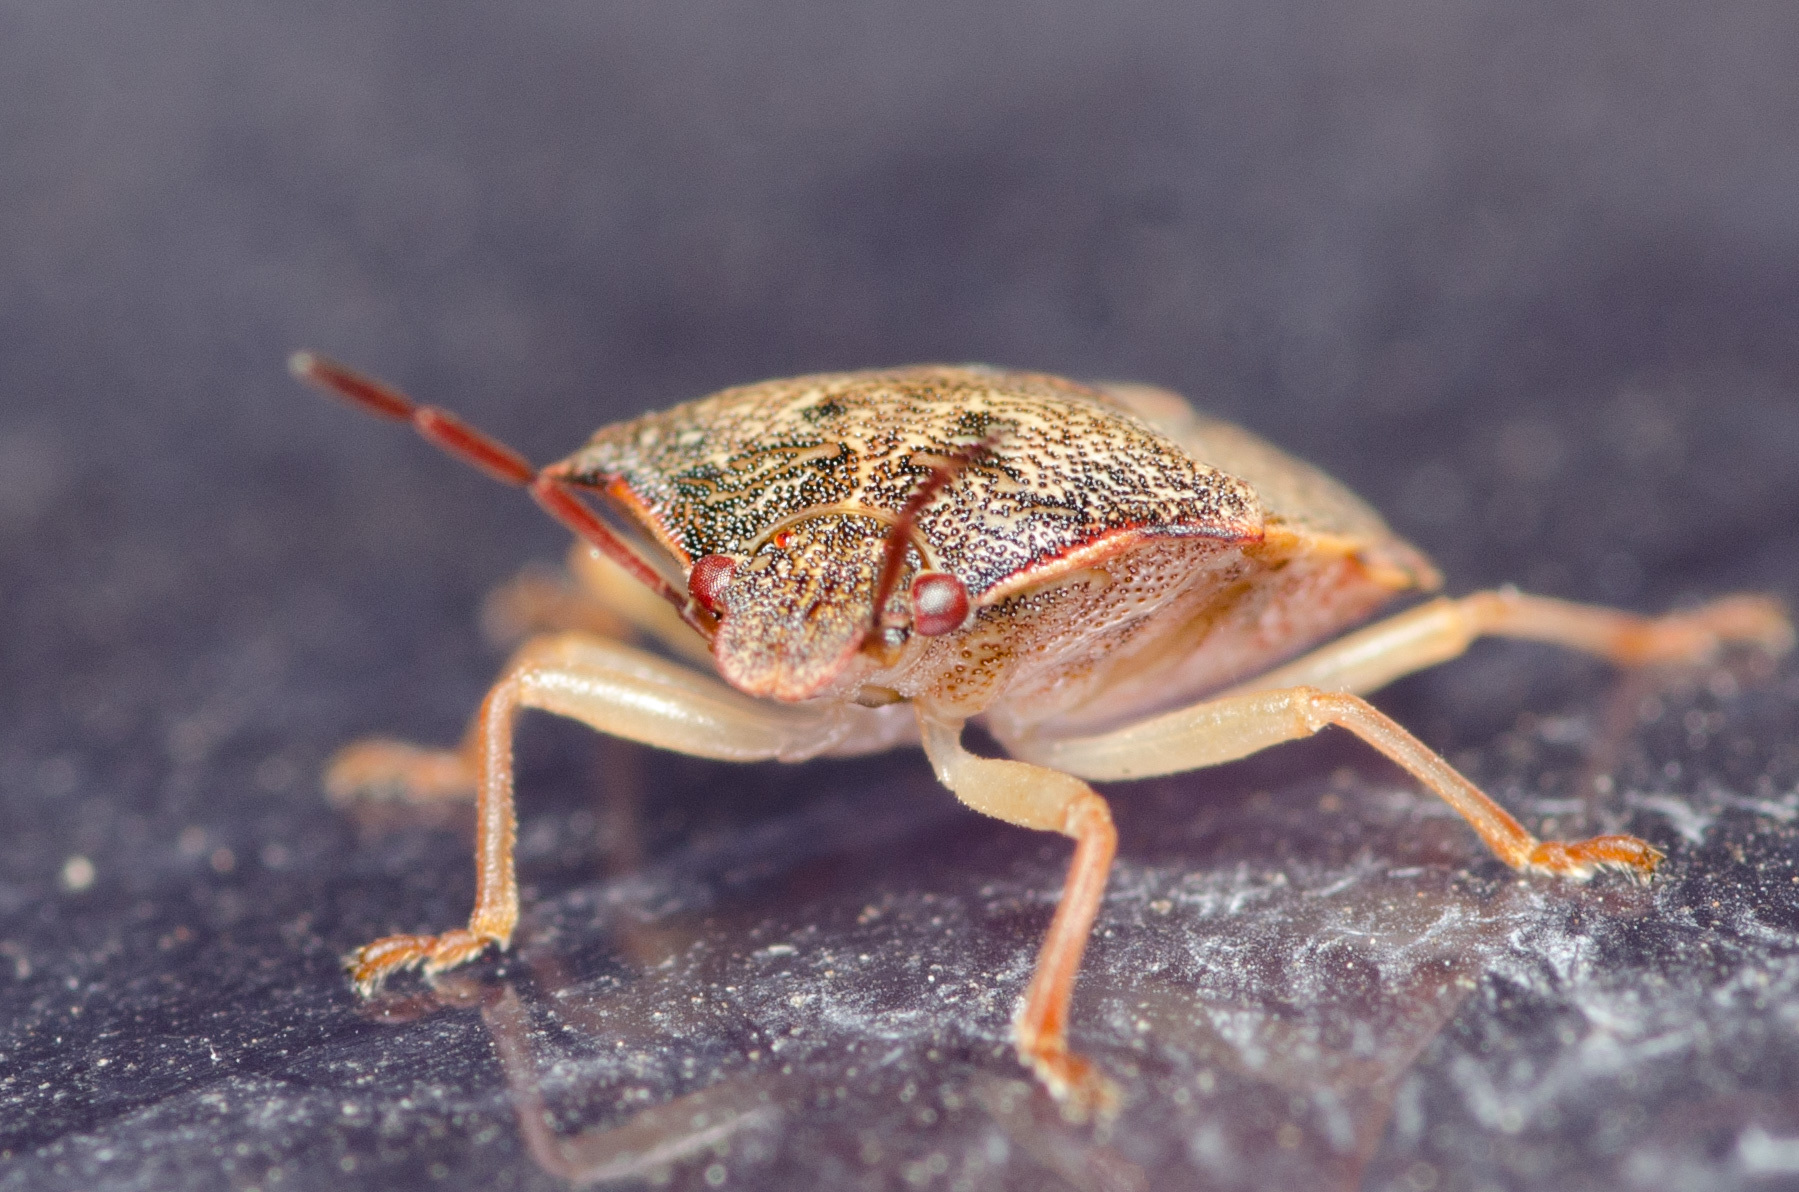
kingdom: Animalia
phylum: Arthropoda
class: Insecta
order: Hemiptera
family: Pentatomidae
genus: Dendrocoris
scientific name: Dendrocoris humeralis
